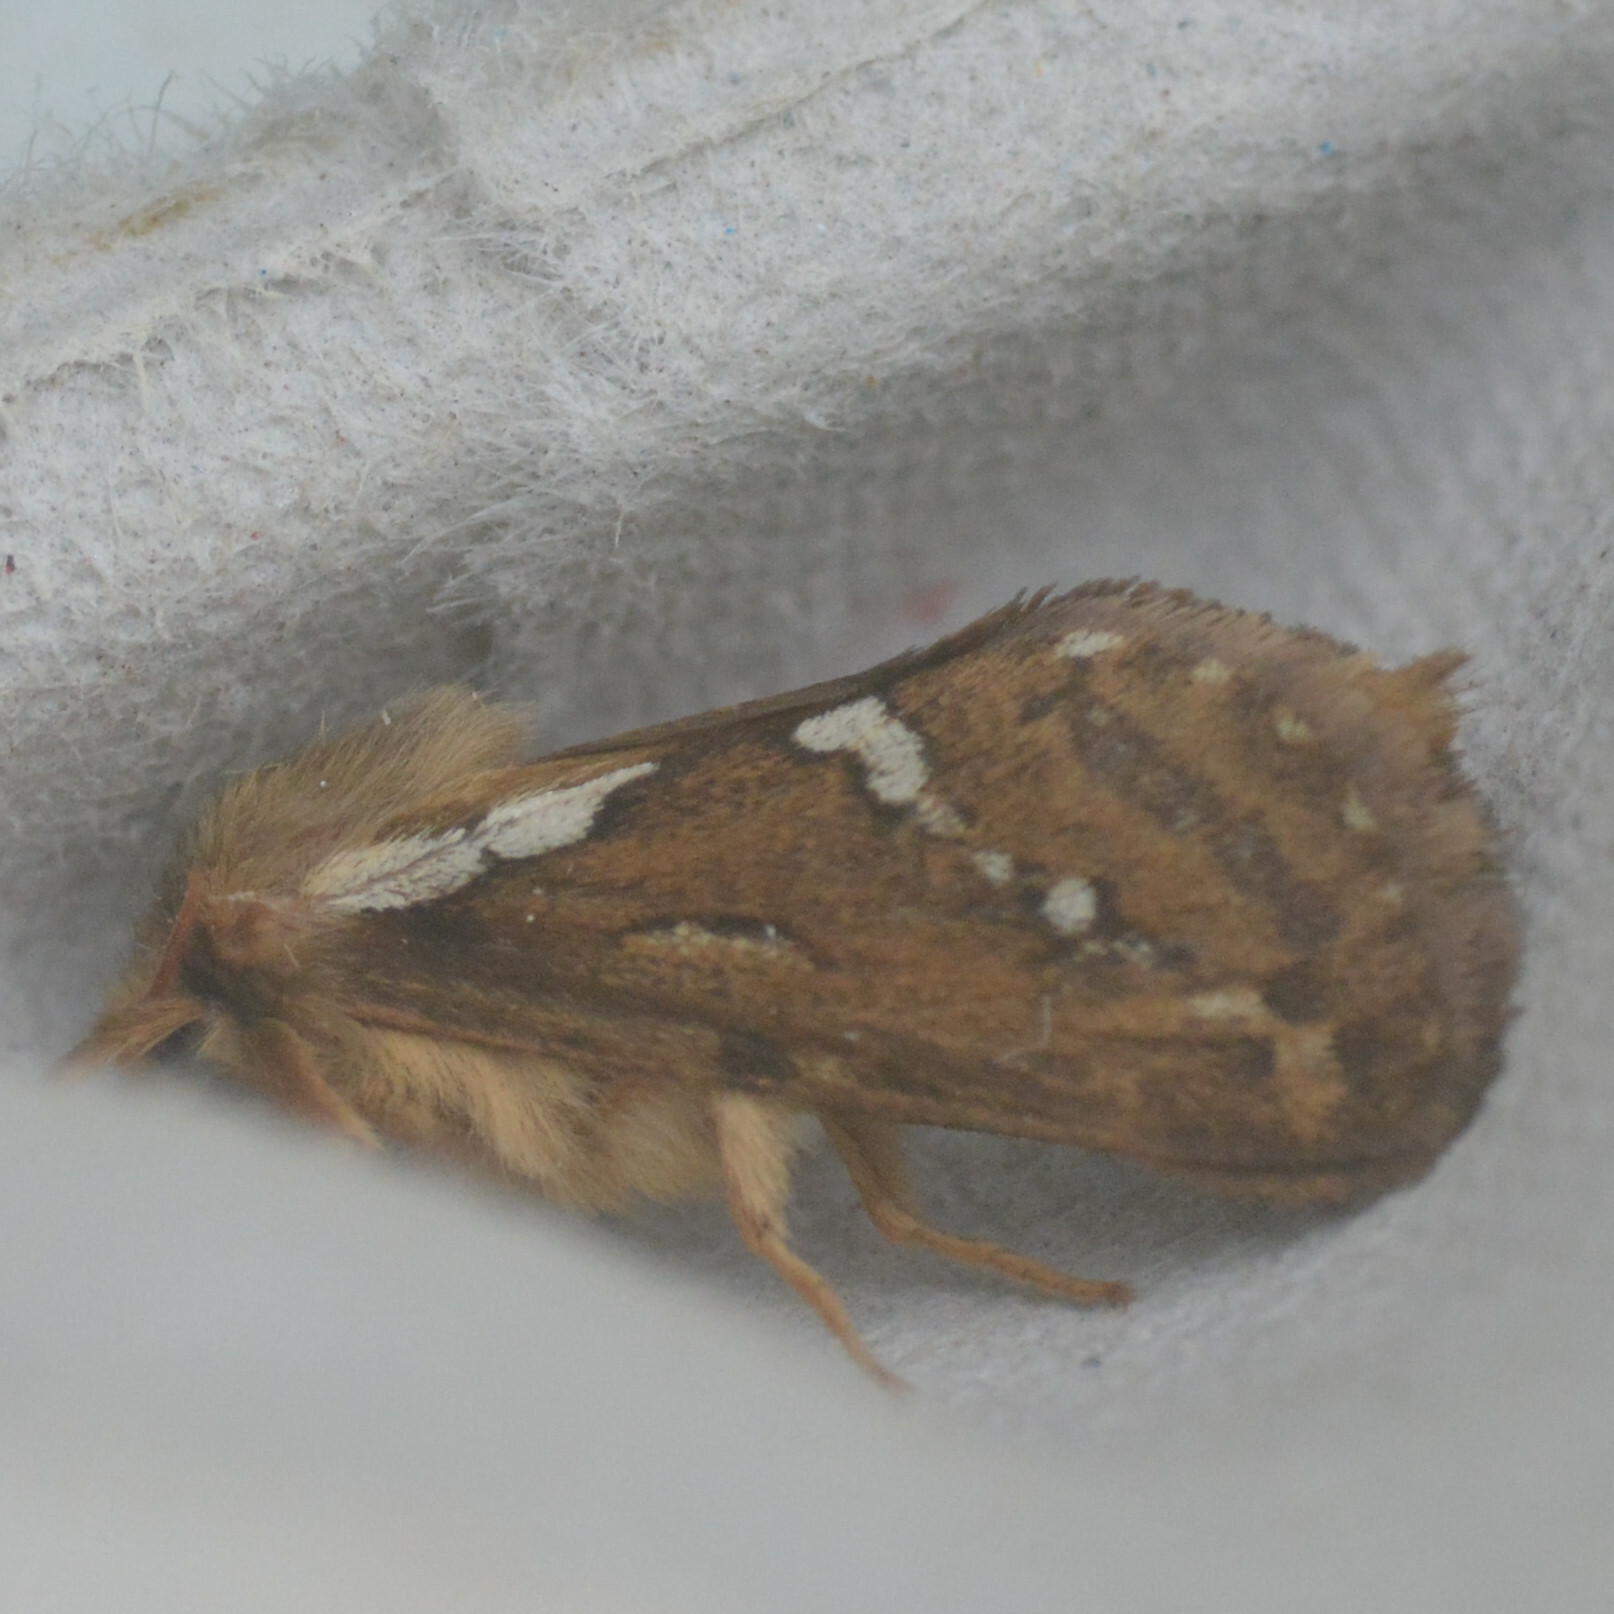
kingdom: Animalia
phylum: Arthropoda
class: Insecta
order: Lepidoptera
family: Hepialidae
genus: Korscheltellus
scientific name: Korscheltellus lupulina
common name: Common swift
